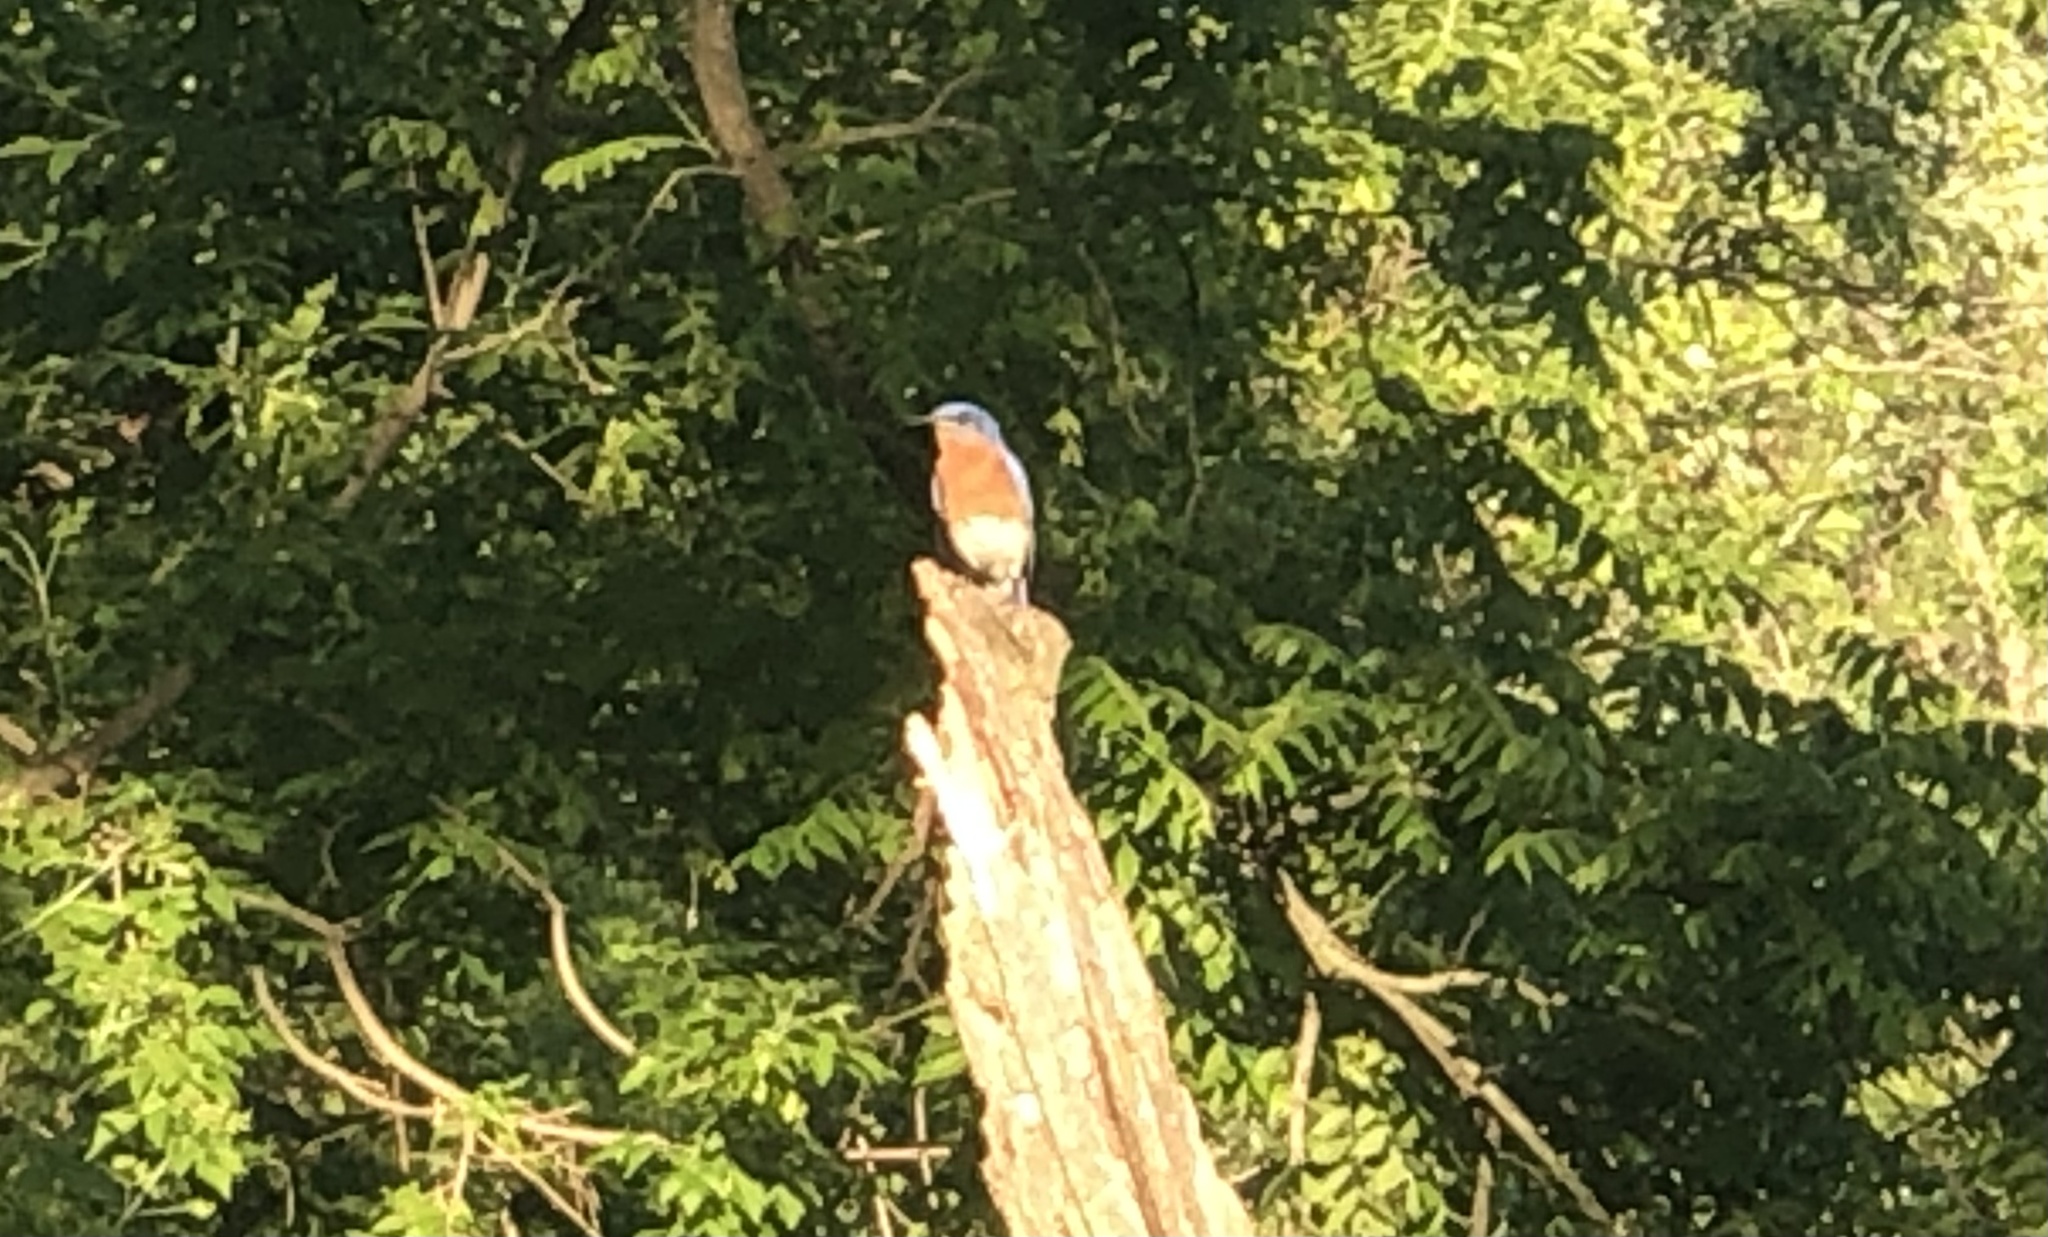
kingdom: Animalia
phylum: Chordata
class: Aves
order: Passeriformes
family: Turdidae
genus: Sialia
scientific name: Sialia sialis
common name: Eastern bluebird
